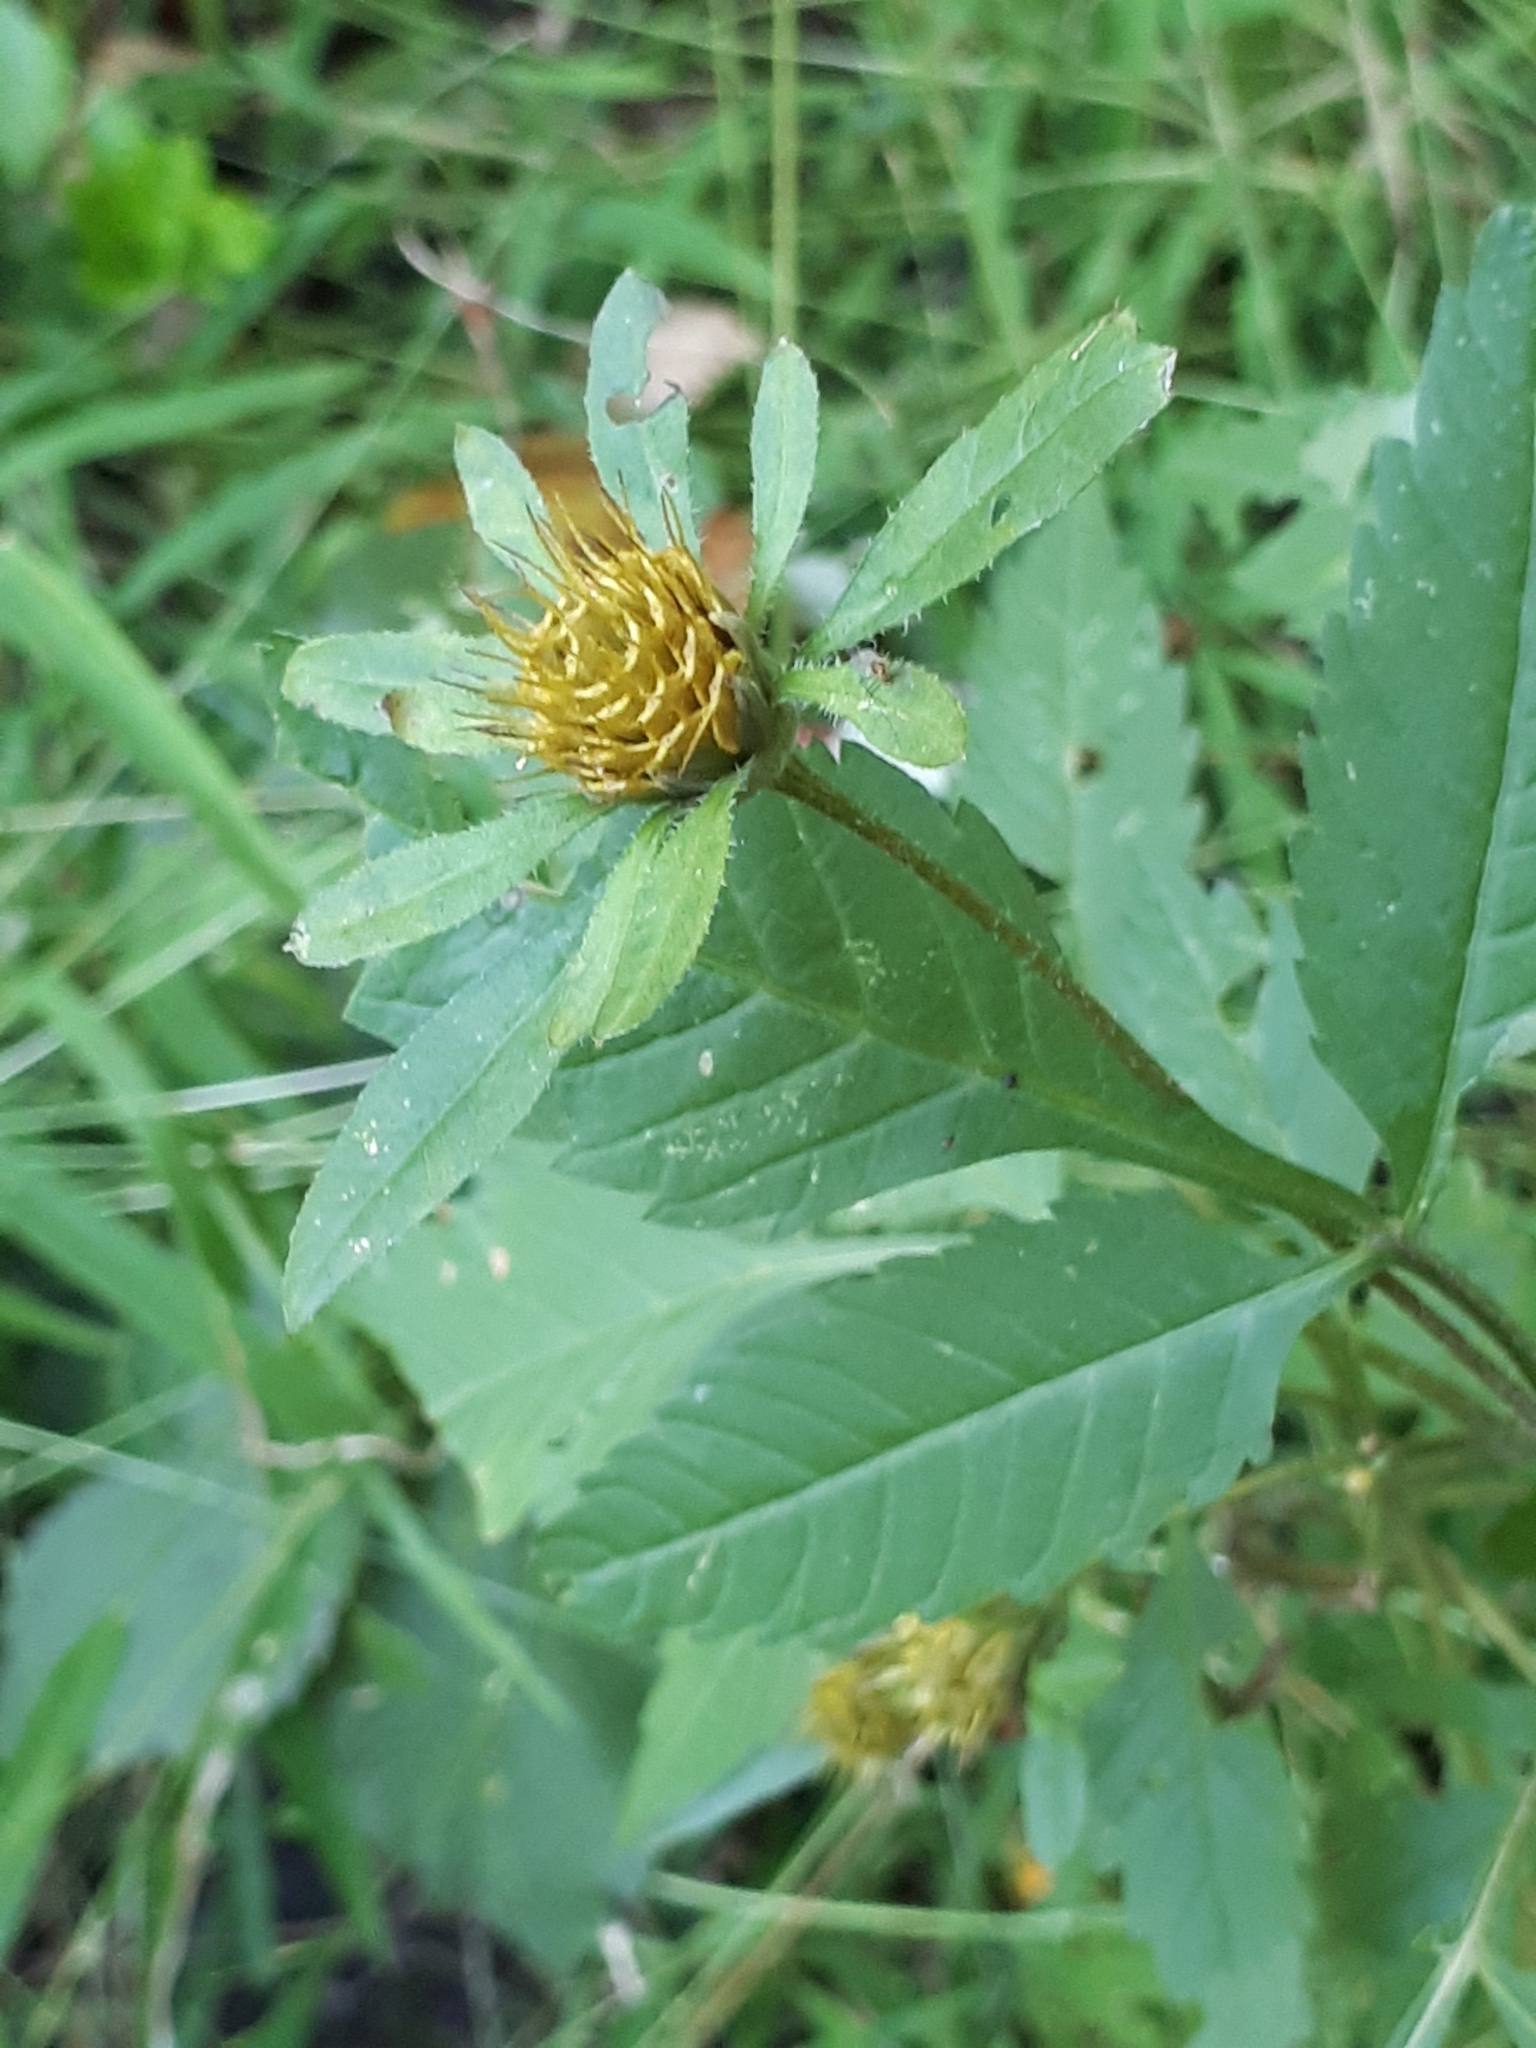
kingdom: Plantae
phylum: Tracheophyta
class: Magnoliopsida
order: Asterales
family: Asteraceae
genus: Bidens
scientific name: Bidens frondosa
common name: Beggarticks
